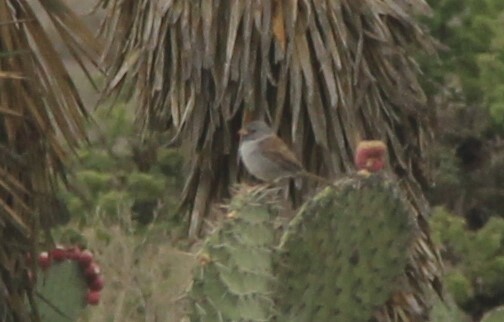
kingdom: Animalia
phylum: Chordata
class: Aves
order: Passeriformes
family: Passerellidae
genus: Spizella
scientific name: Spizella atrogularis
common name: Black-chinned sparrow
